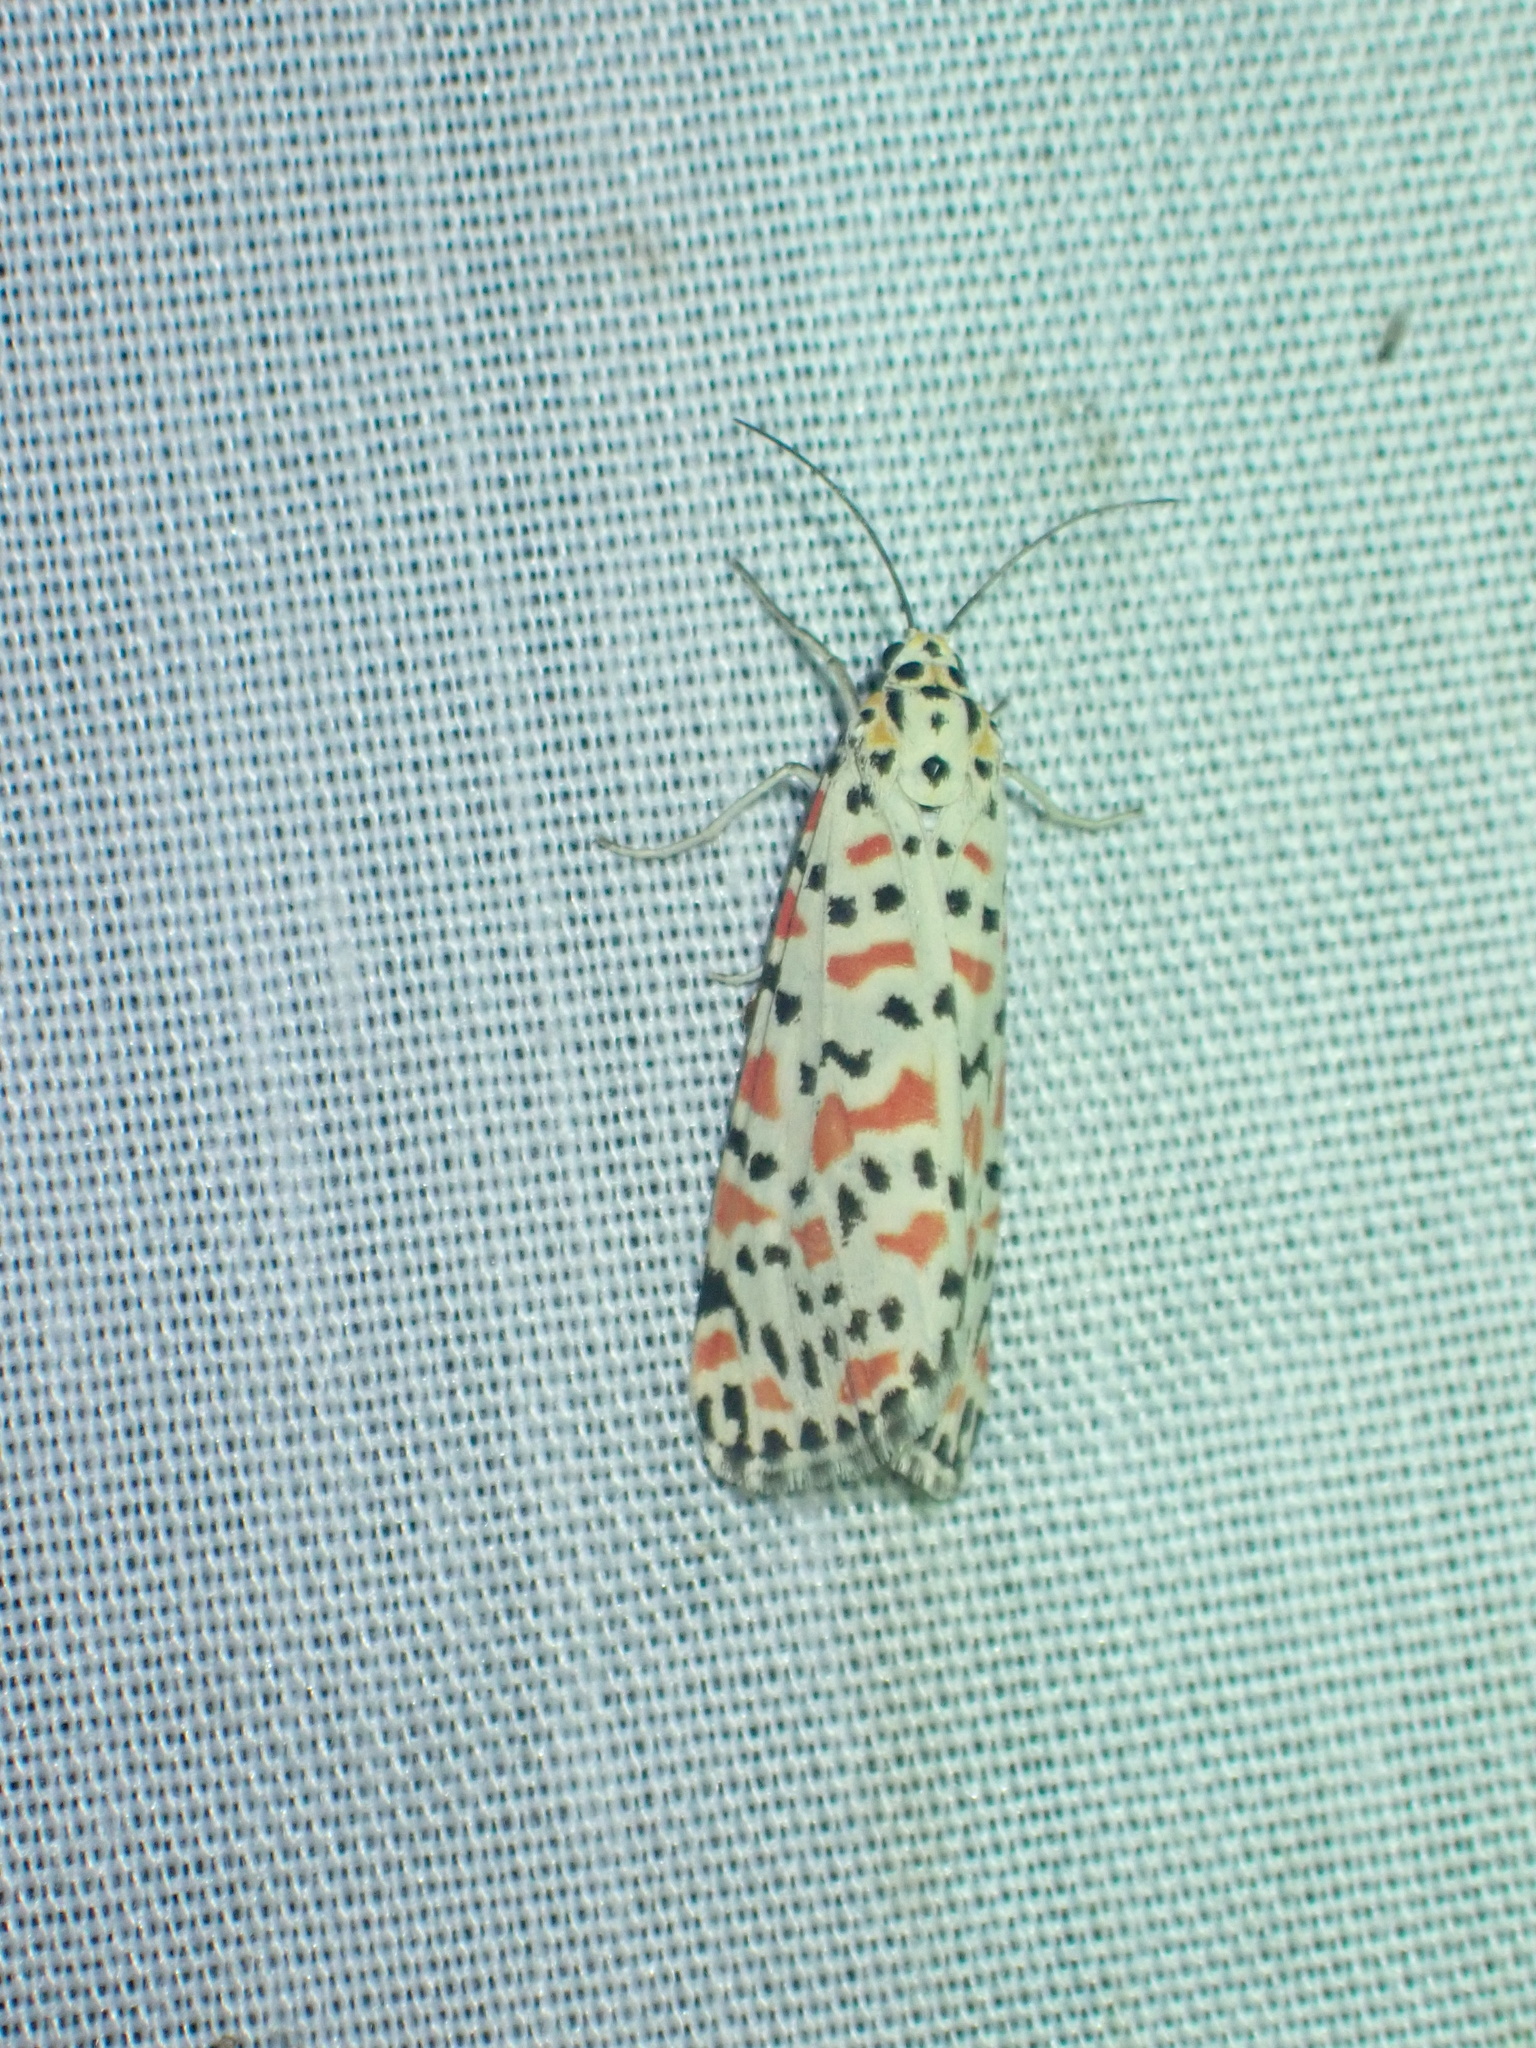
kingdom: Animalia
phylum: Arthropoda
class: Insecta
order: Lepidoptera
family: Erebidae
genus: Utetheisa
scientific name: Utetheisa pulchella
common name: Crimson speckled
